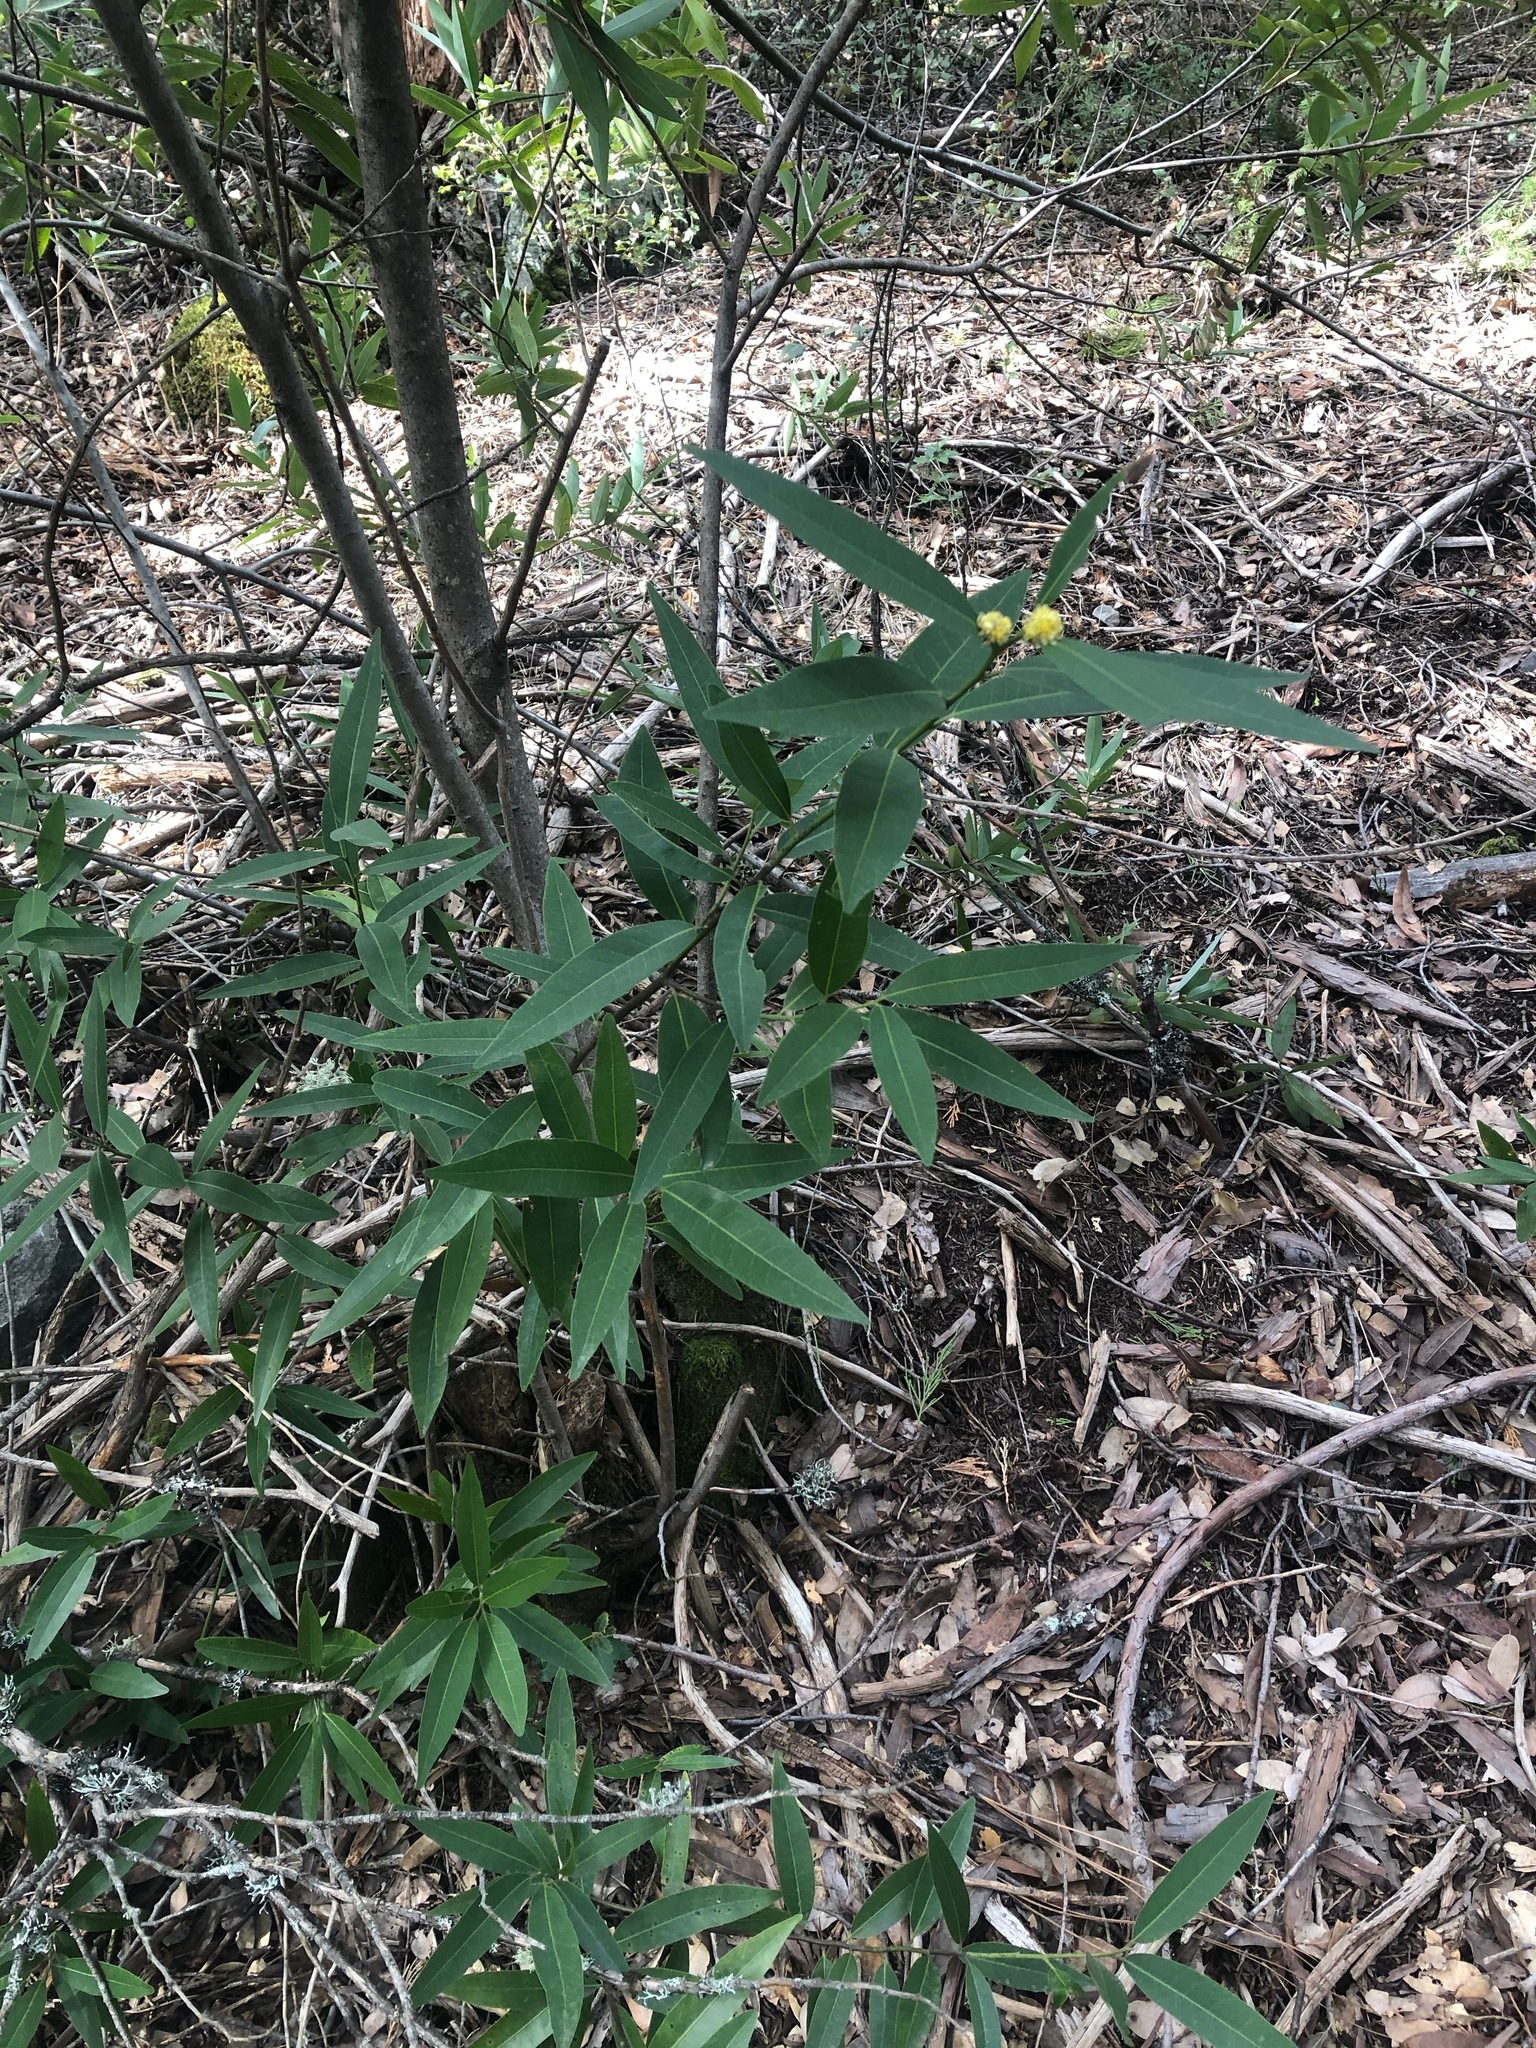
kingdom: Plantae
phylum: Tracheophyta
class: Magnoliopsida
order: Laurales
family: Lauraceae
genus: Umbellularia
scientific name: Umbellularia californica
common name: California bay
